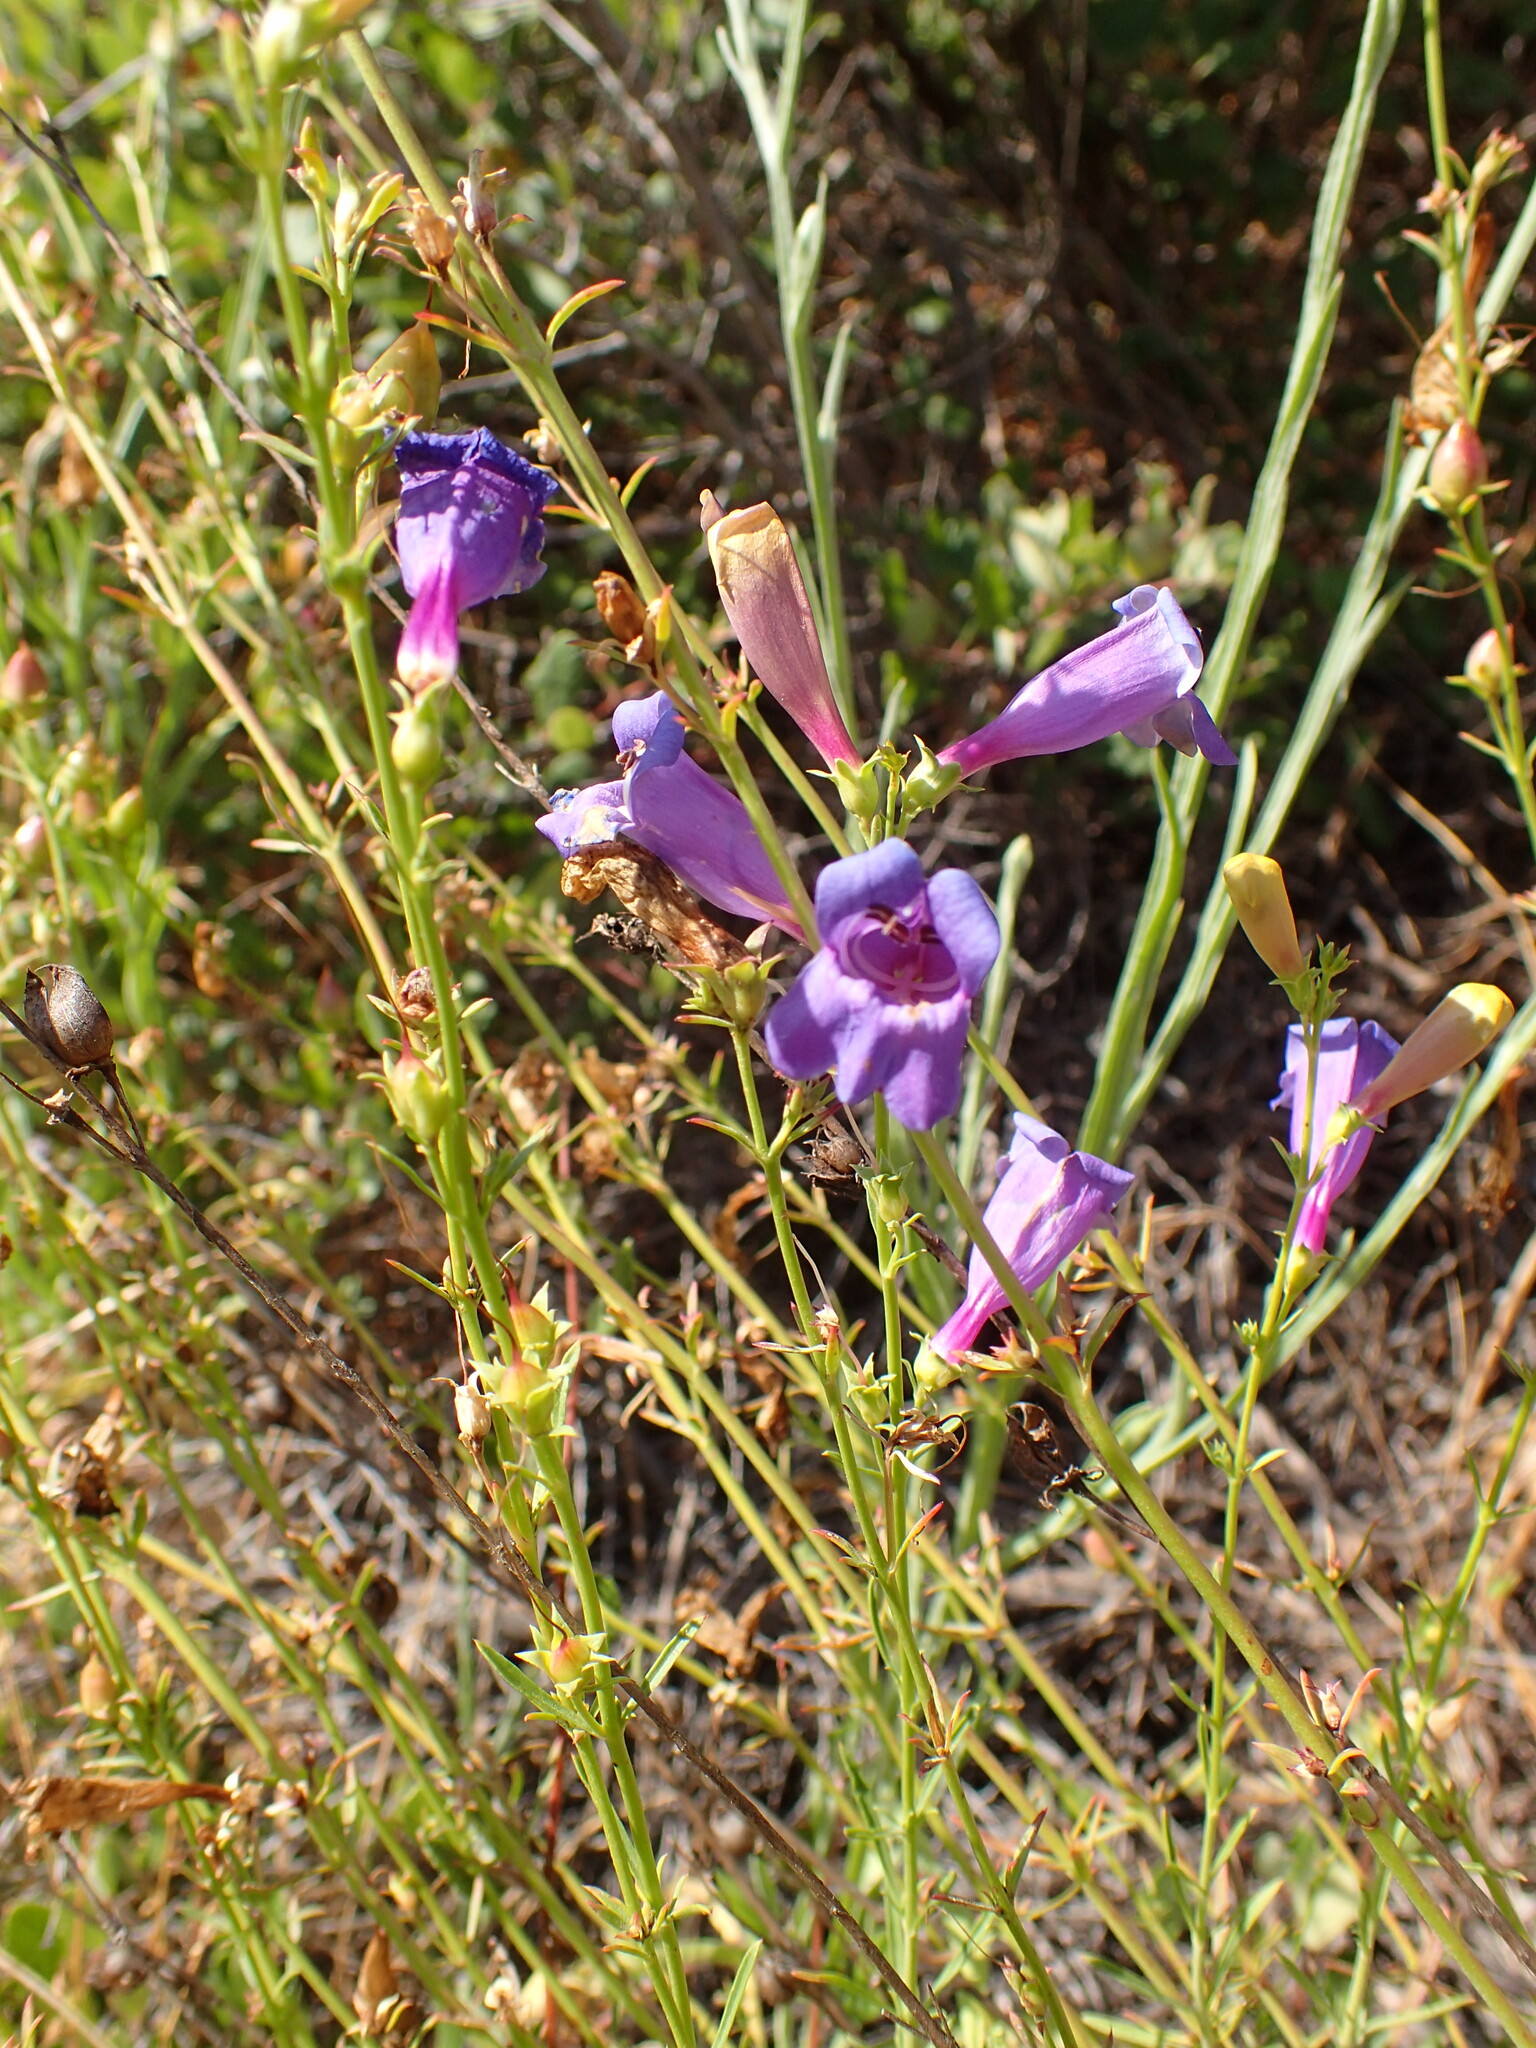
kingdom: Plantae
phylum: Tracheophyta
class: Magnoliopsida
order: Lamiales
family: Plantaginaceae
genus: Penstemon
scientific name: Penstemon heterophyllus
